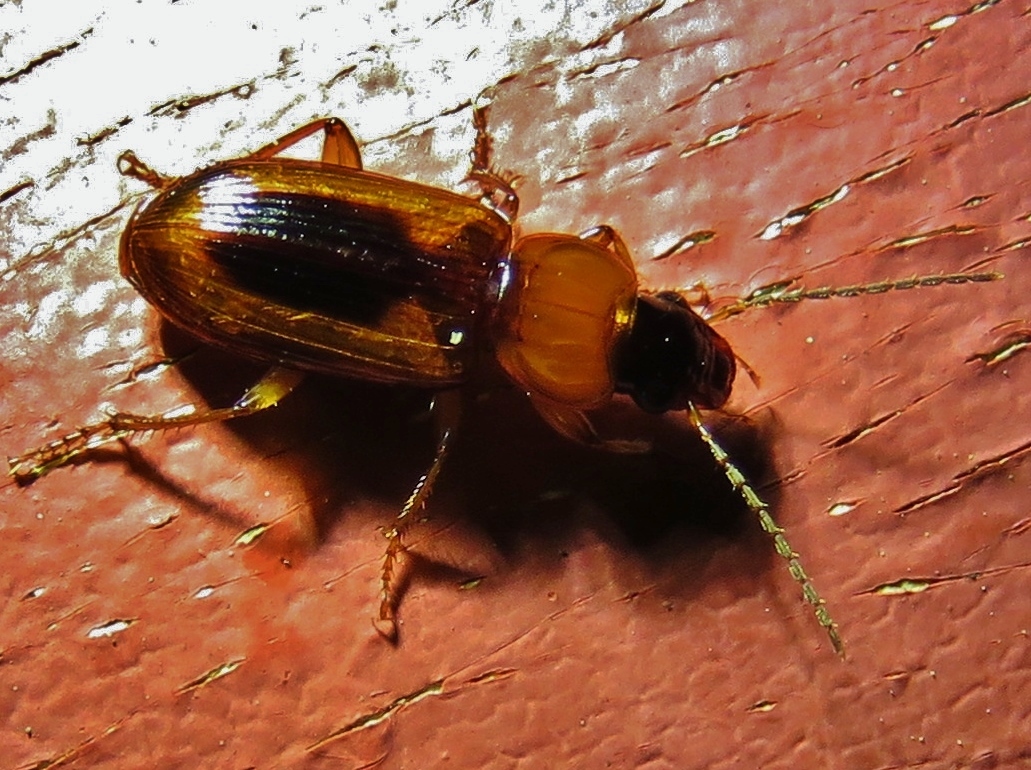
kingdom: Animalia
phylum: Arthropoda
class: Insecta
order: Coleoptera
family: Carabidae
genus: Stenolophus
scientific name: Stenolophus lecontei
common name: Leconte's seedcorn beetle
